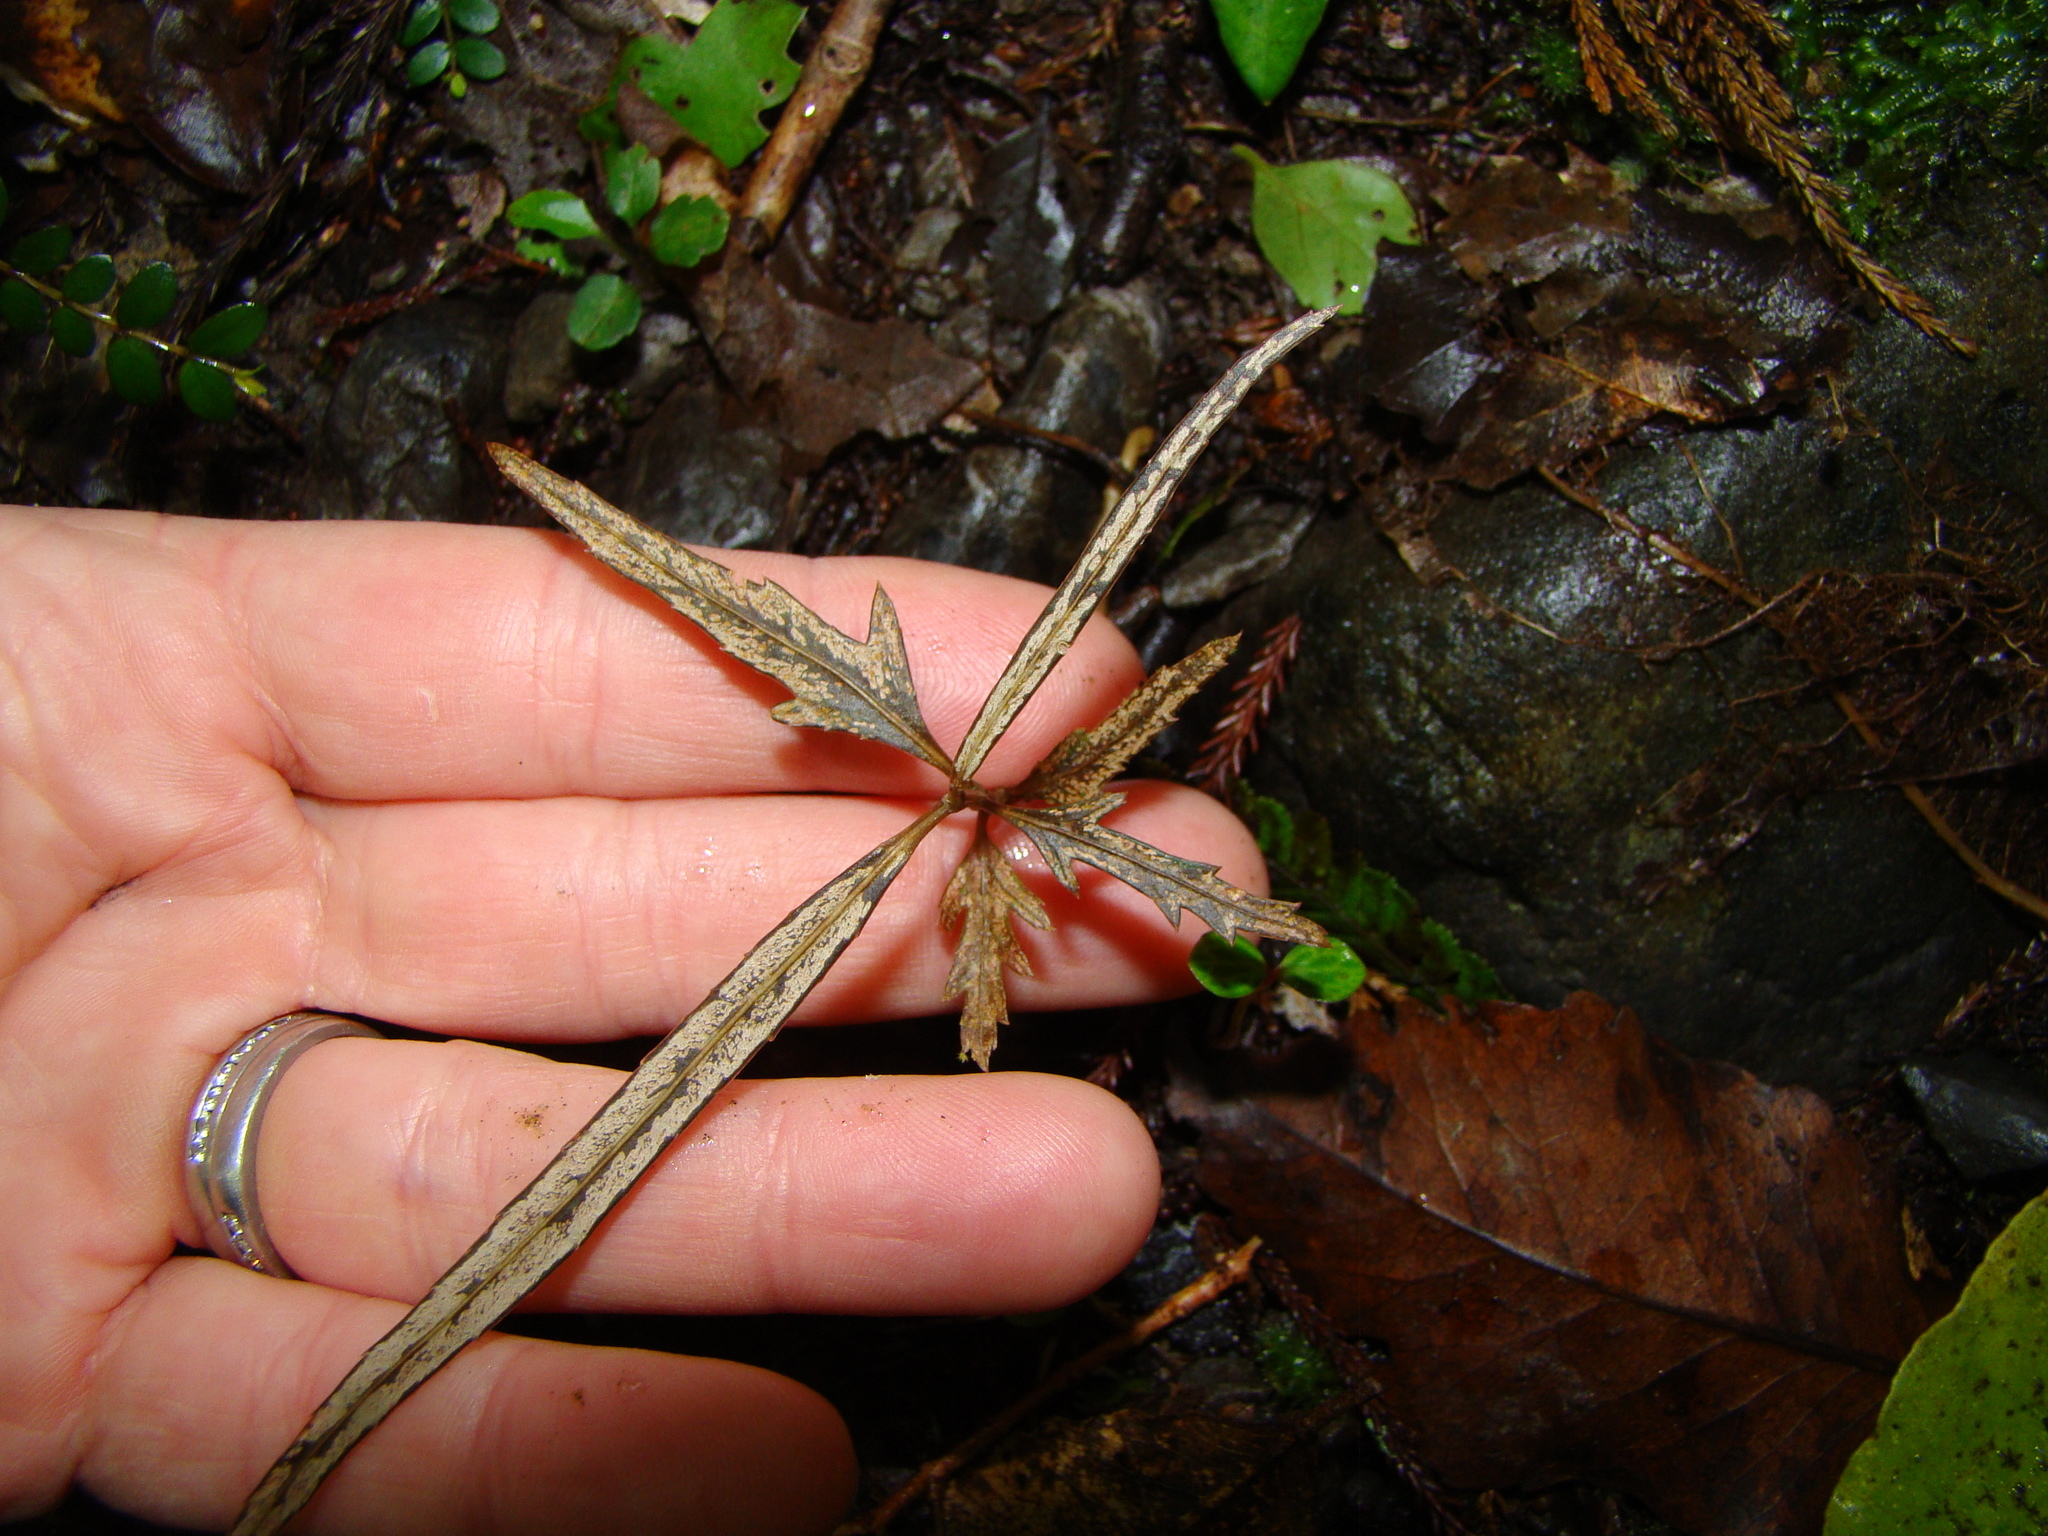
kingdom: Plantae
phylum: Tracheophyta
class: Magnoliopsida
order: Apiales
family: Araliaceae
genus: Pseudopanax
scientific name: Pseudopanax crassifolius
